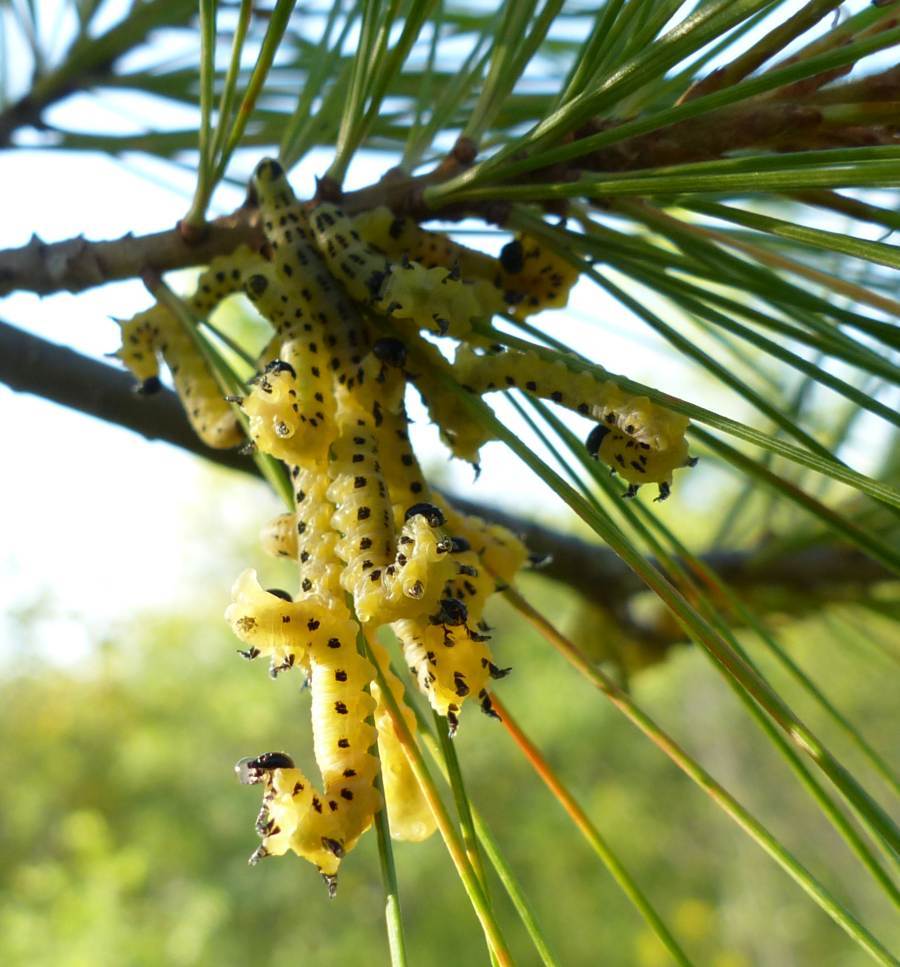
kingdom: Animalia
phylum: Arthropoda
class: Insecta
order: Hymenoptera
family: Diprionidae
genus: Neodiprion
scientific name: Neodiprion pinetum
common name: White pine sawfly
